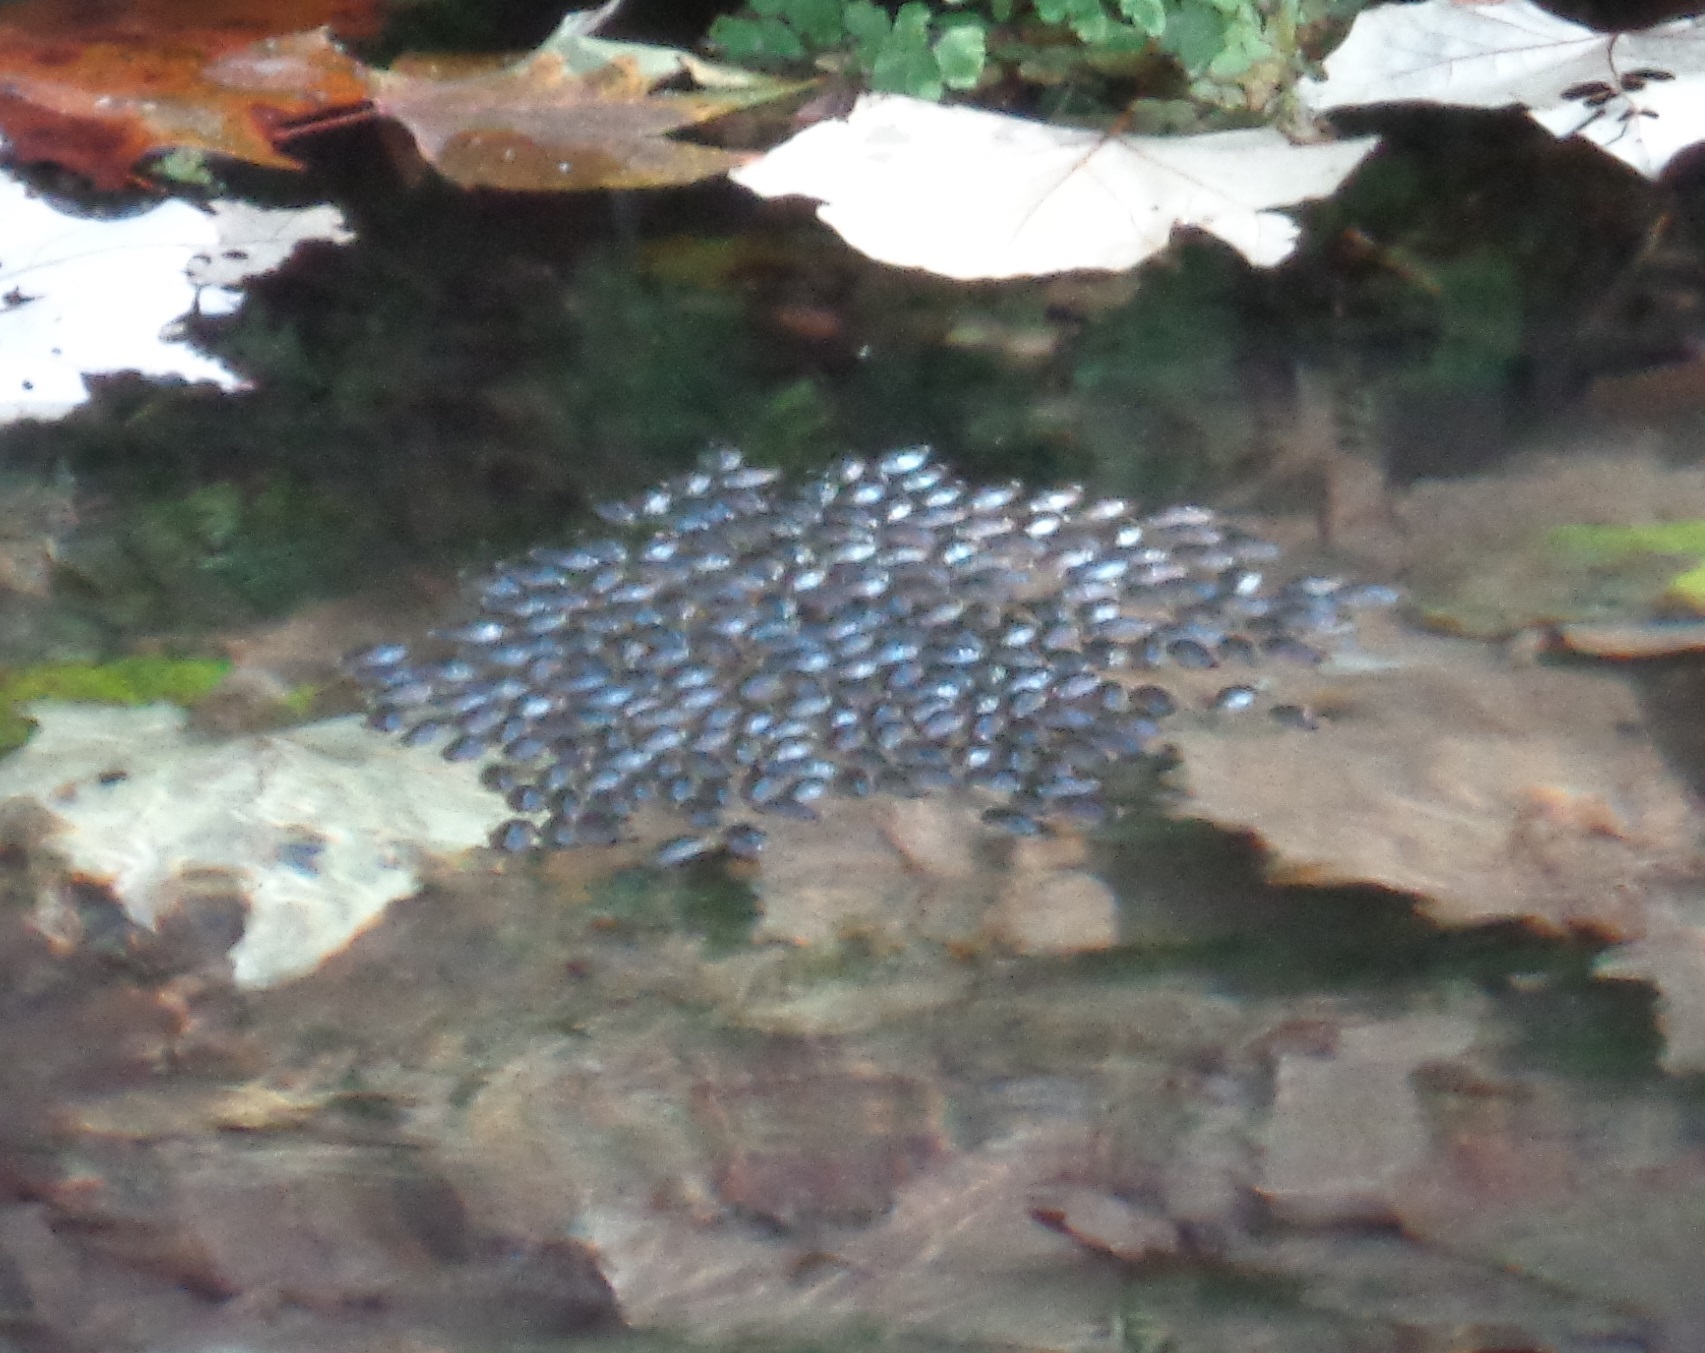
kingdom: Animalia
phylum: Arthropoda
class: Insecta
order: Coleoptera
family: Gyrinidae
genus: Dineutus
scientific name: Dineutus
